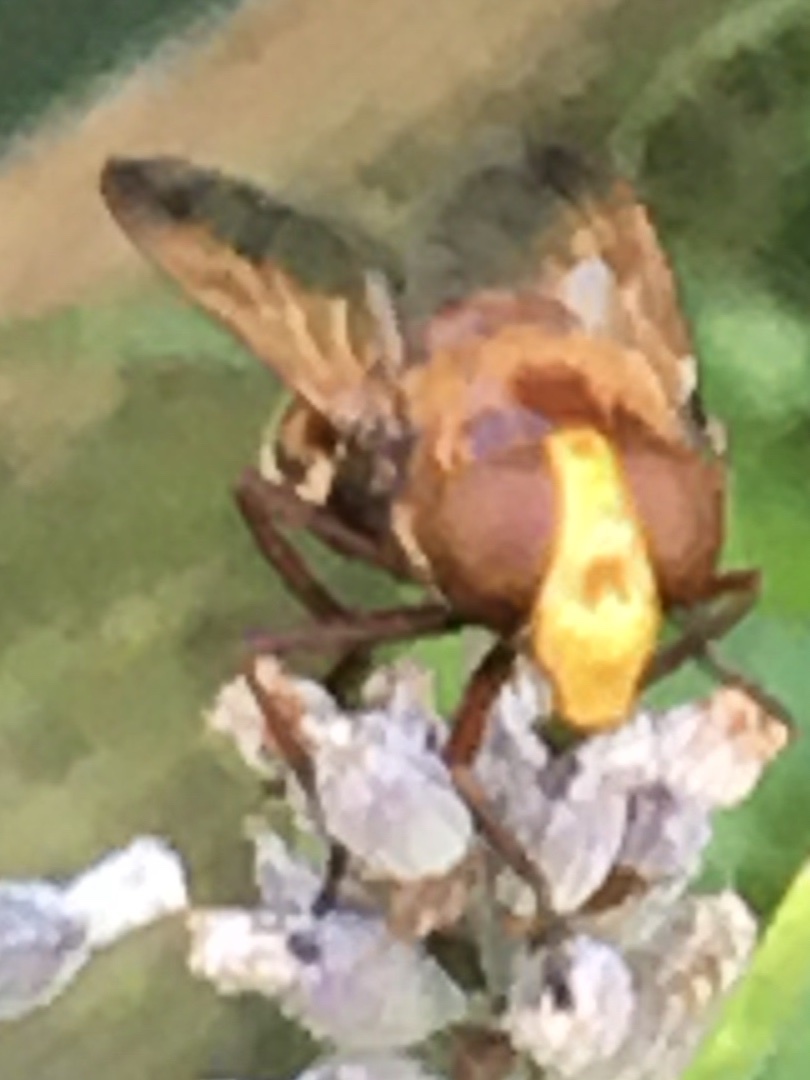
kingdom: Animalia
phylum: Arthropoda
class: Insecta
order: Diptera
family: Syrphidae
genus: Volucella
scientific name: Volucella zonaria
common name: Hornet hoverfly
